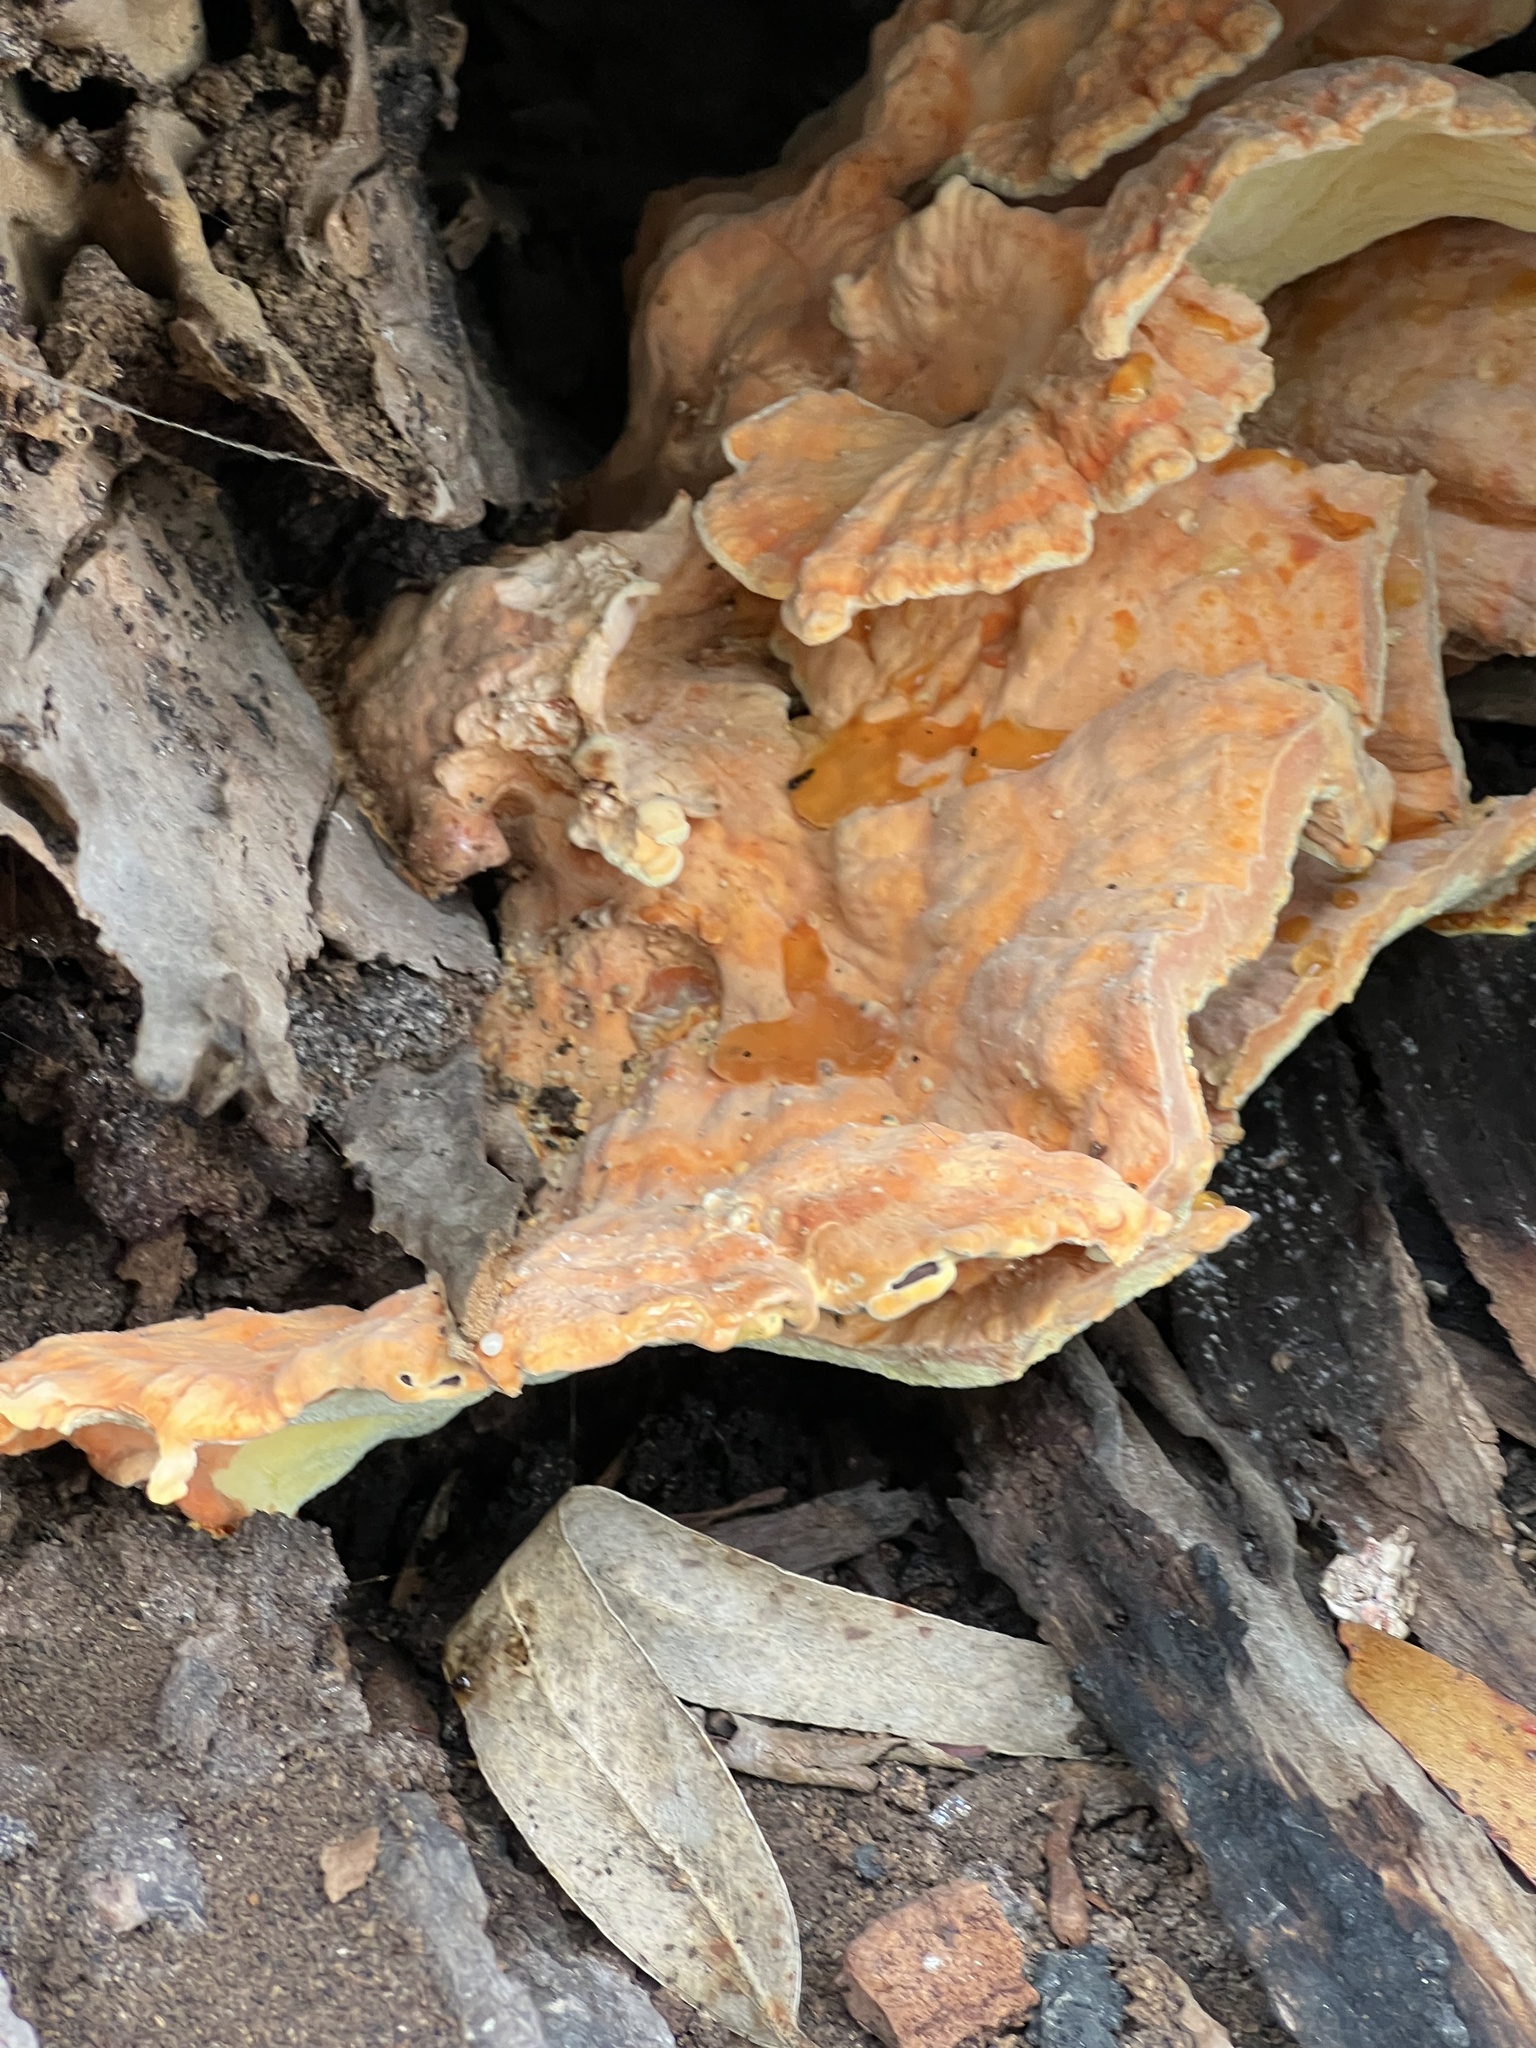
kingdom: Fungi
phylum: Basidiomycota
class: Agaricomycetes
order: Polyporales
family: Laetiporaceae
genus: Laetiporus
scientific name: Laetiporus gilbertsonii
